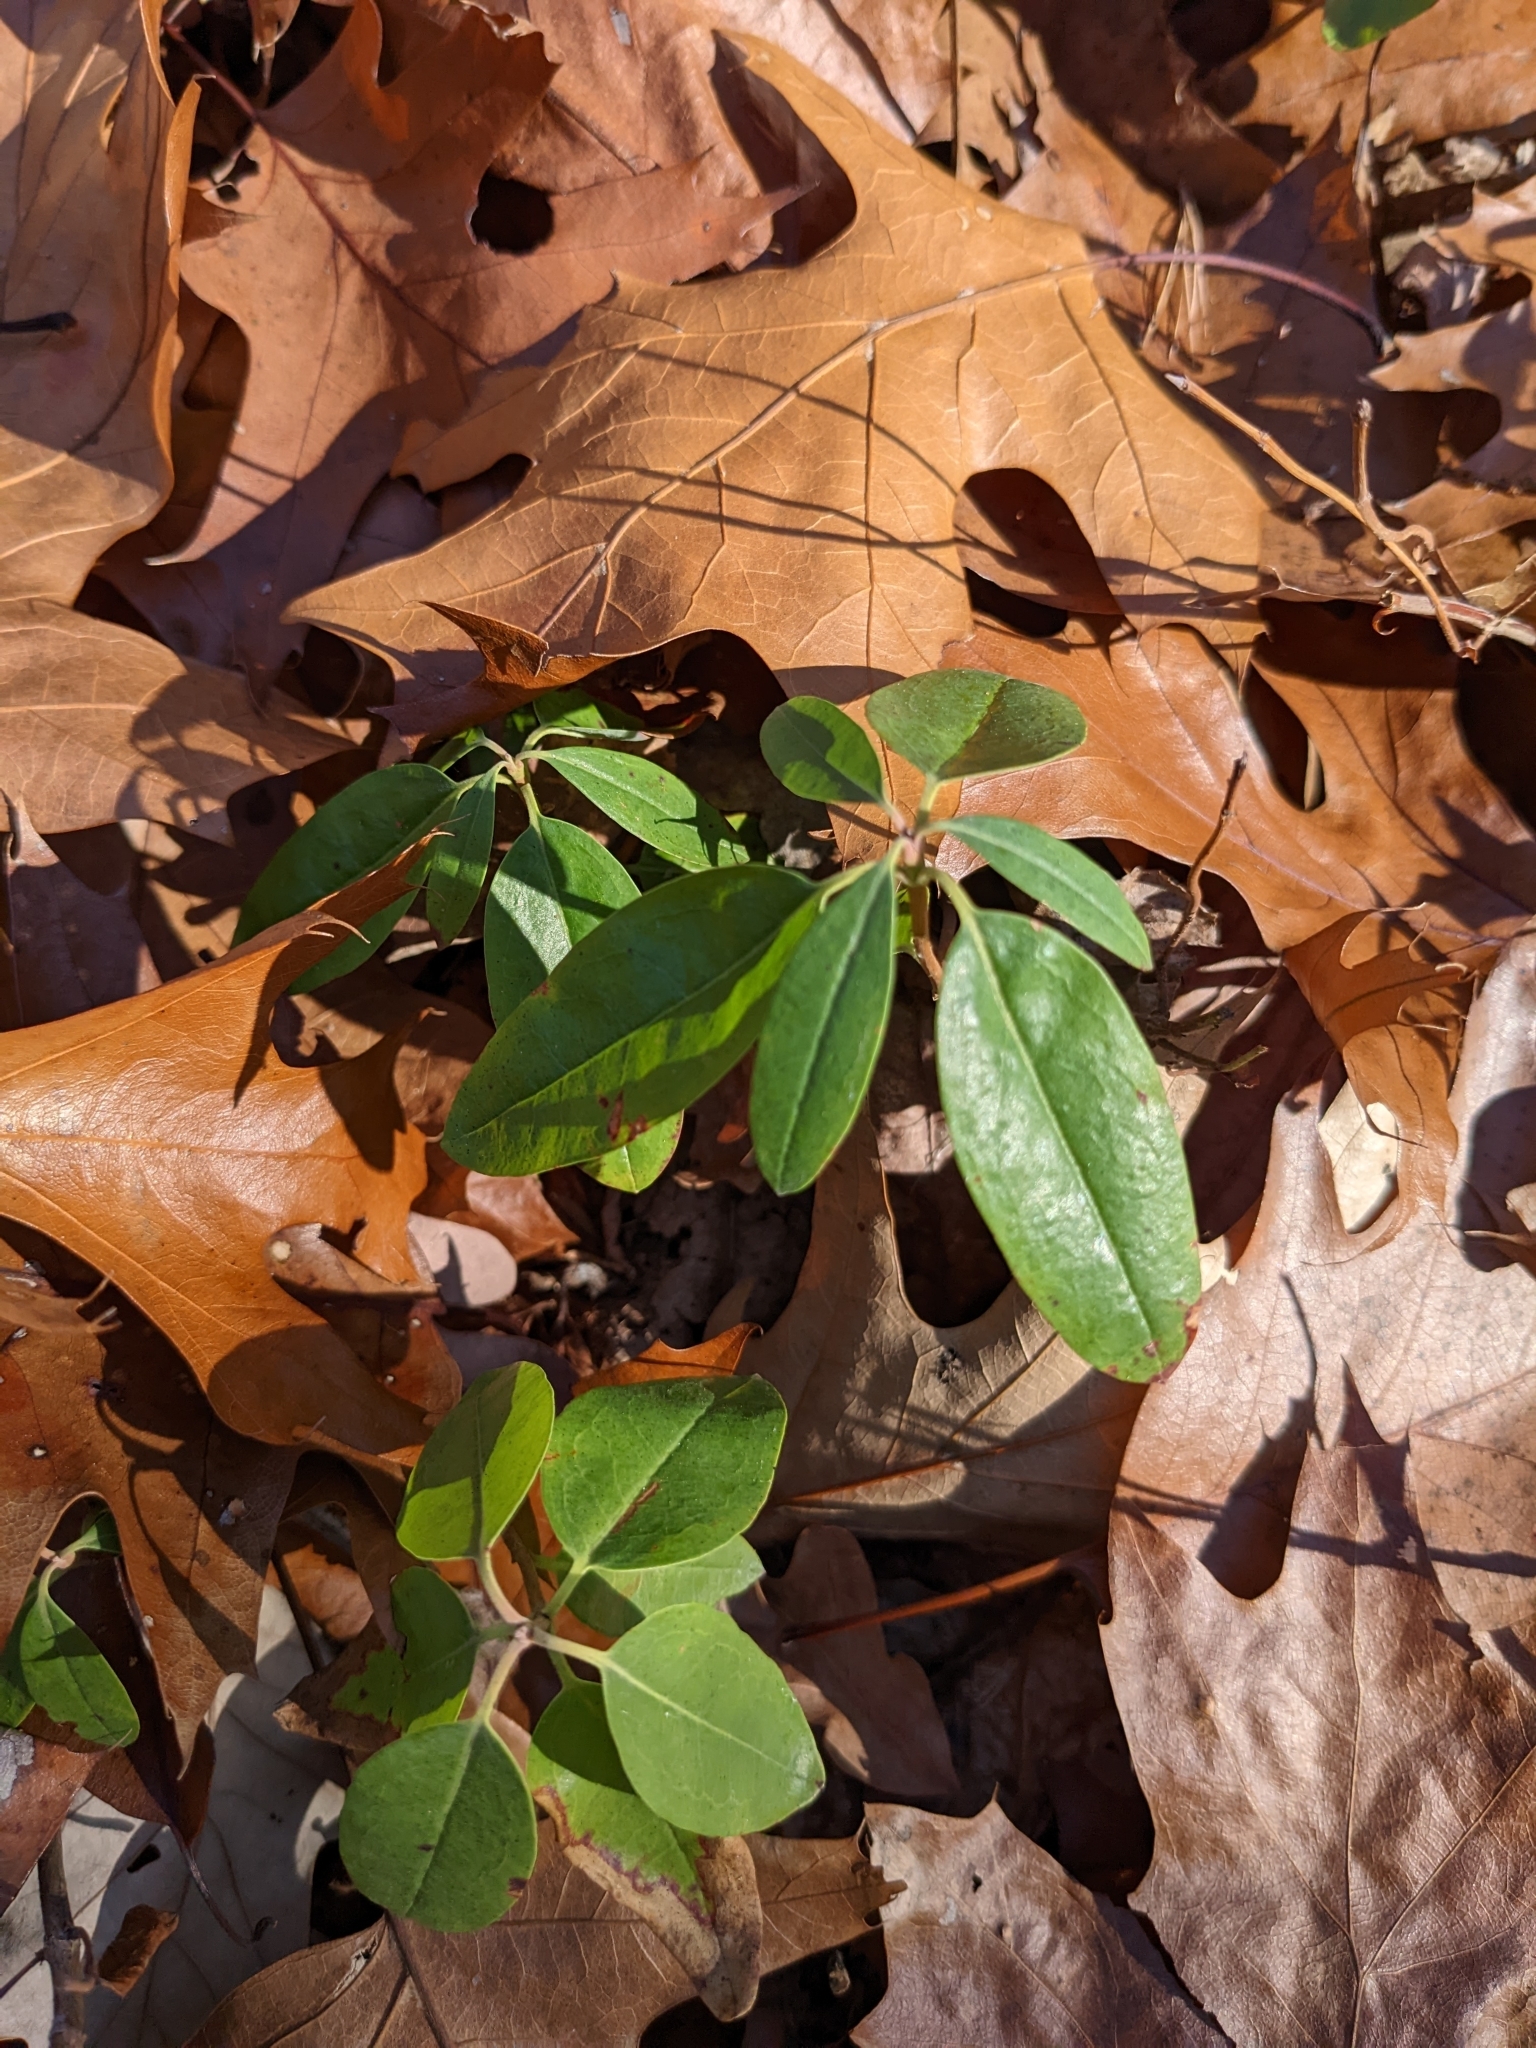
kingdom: Plantae
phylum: Tracheophyta
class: Magnoliopsida
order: Ericales
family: Ericaceae
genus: Kalmia
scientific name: Kalmia angustifolia
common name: Sheep-laurel
